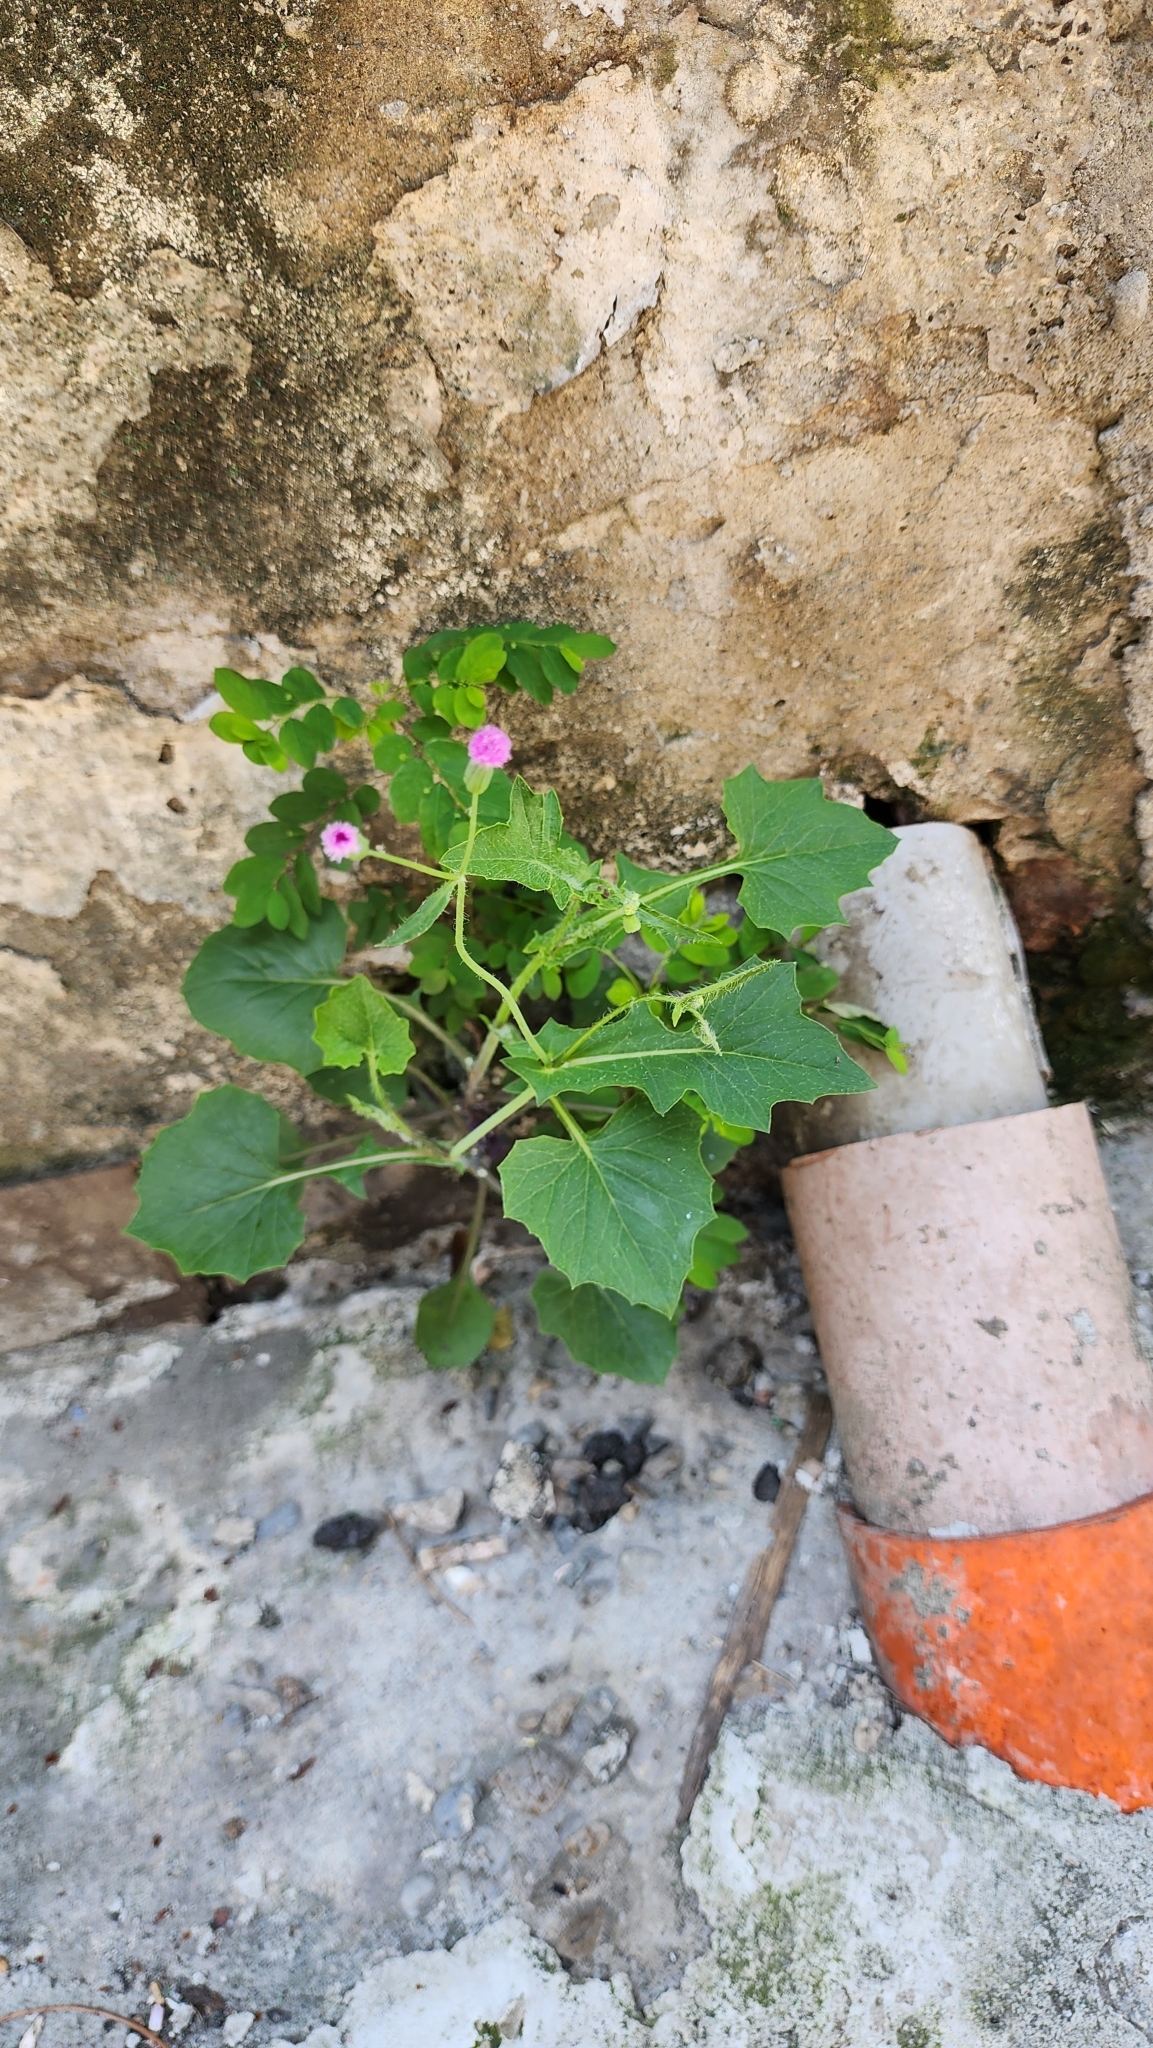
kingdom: Plantae
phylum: Tracheophyta
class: Magnoliopsida
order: Asterales
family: Asteraceae
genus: Emilia
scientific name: Emilia javanica
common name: Tassel-flower
